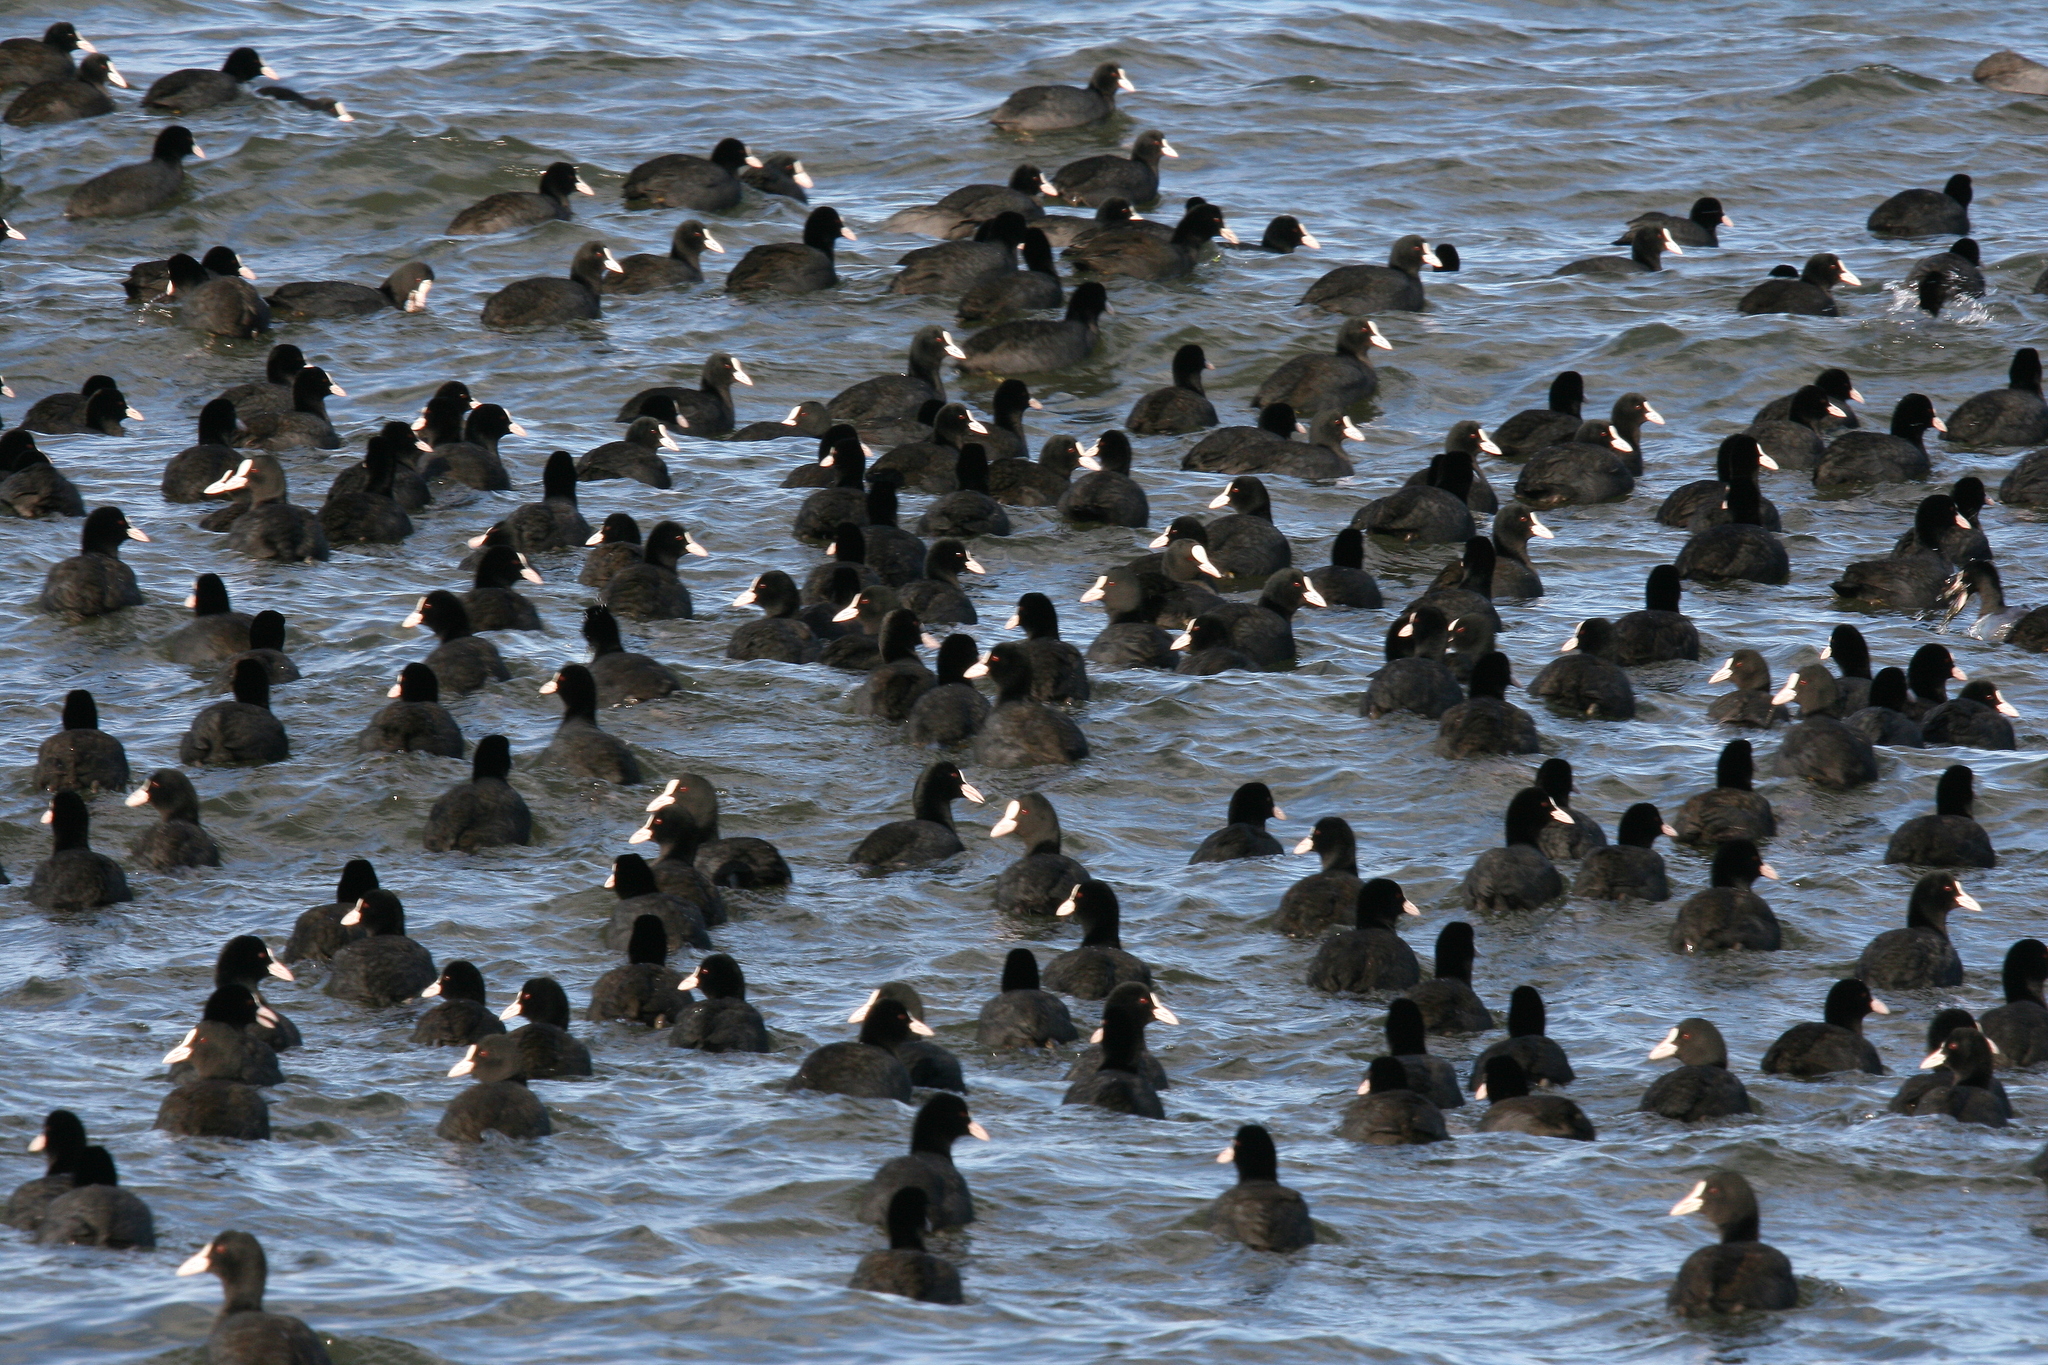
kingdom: Animalia
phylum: Chordata
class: Aves
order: Gruiformes
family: Rallidae
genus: Fulica
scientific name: Fulica atra
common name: Eurasian coot
